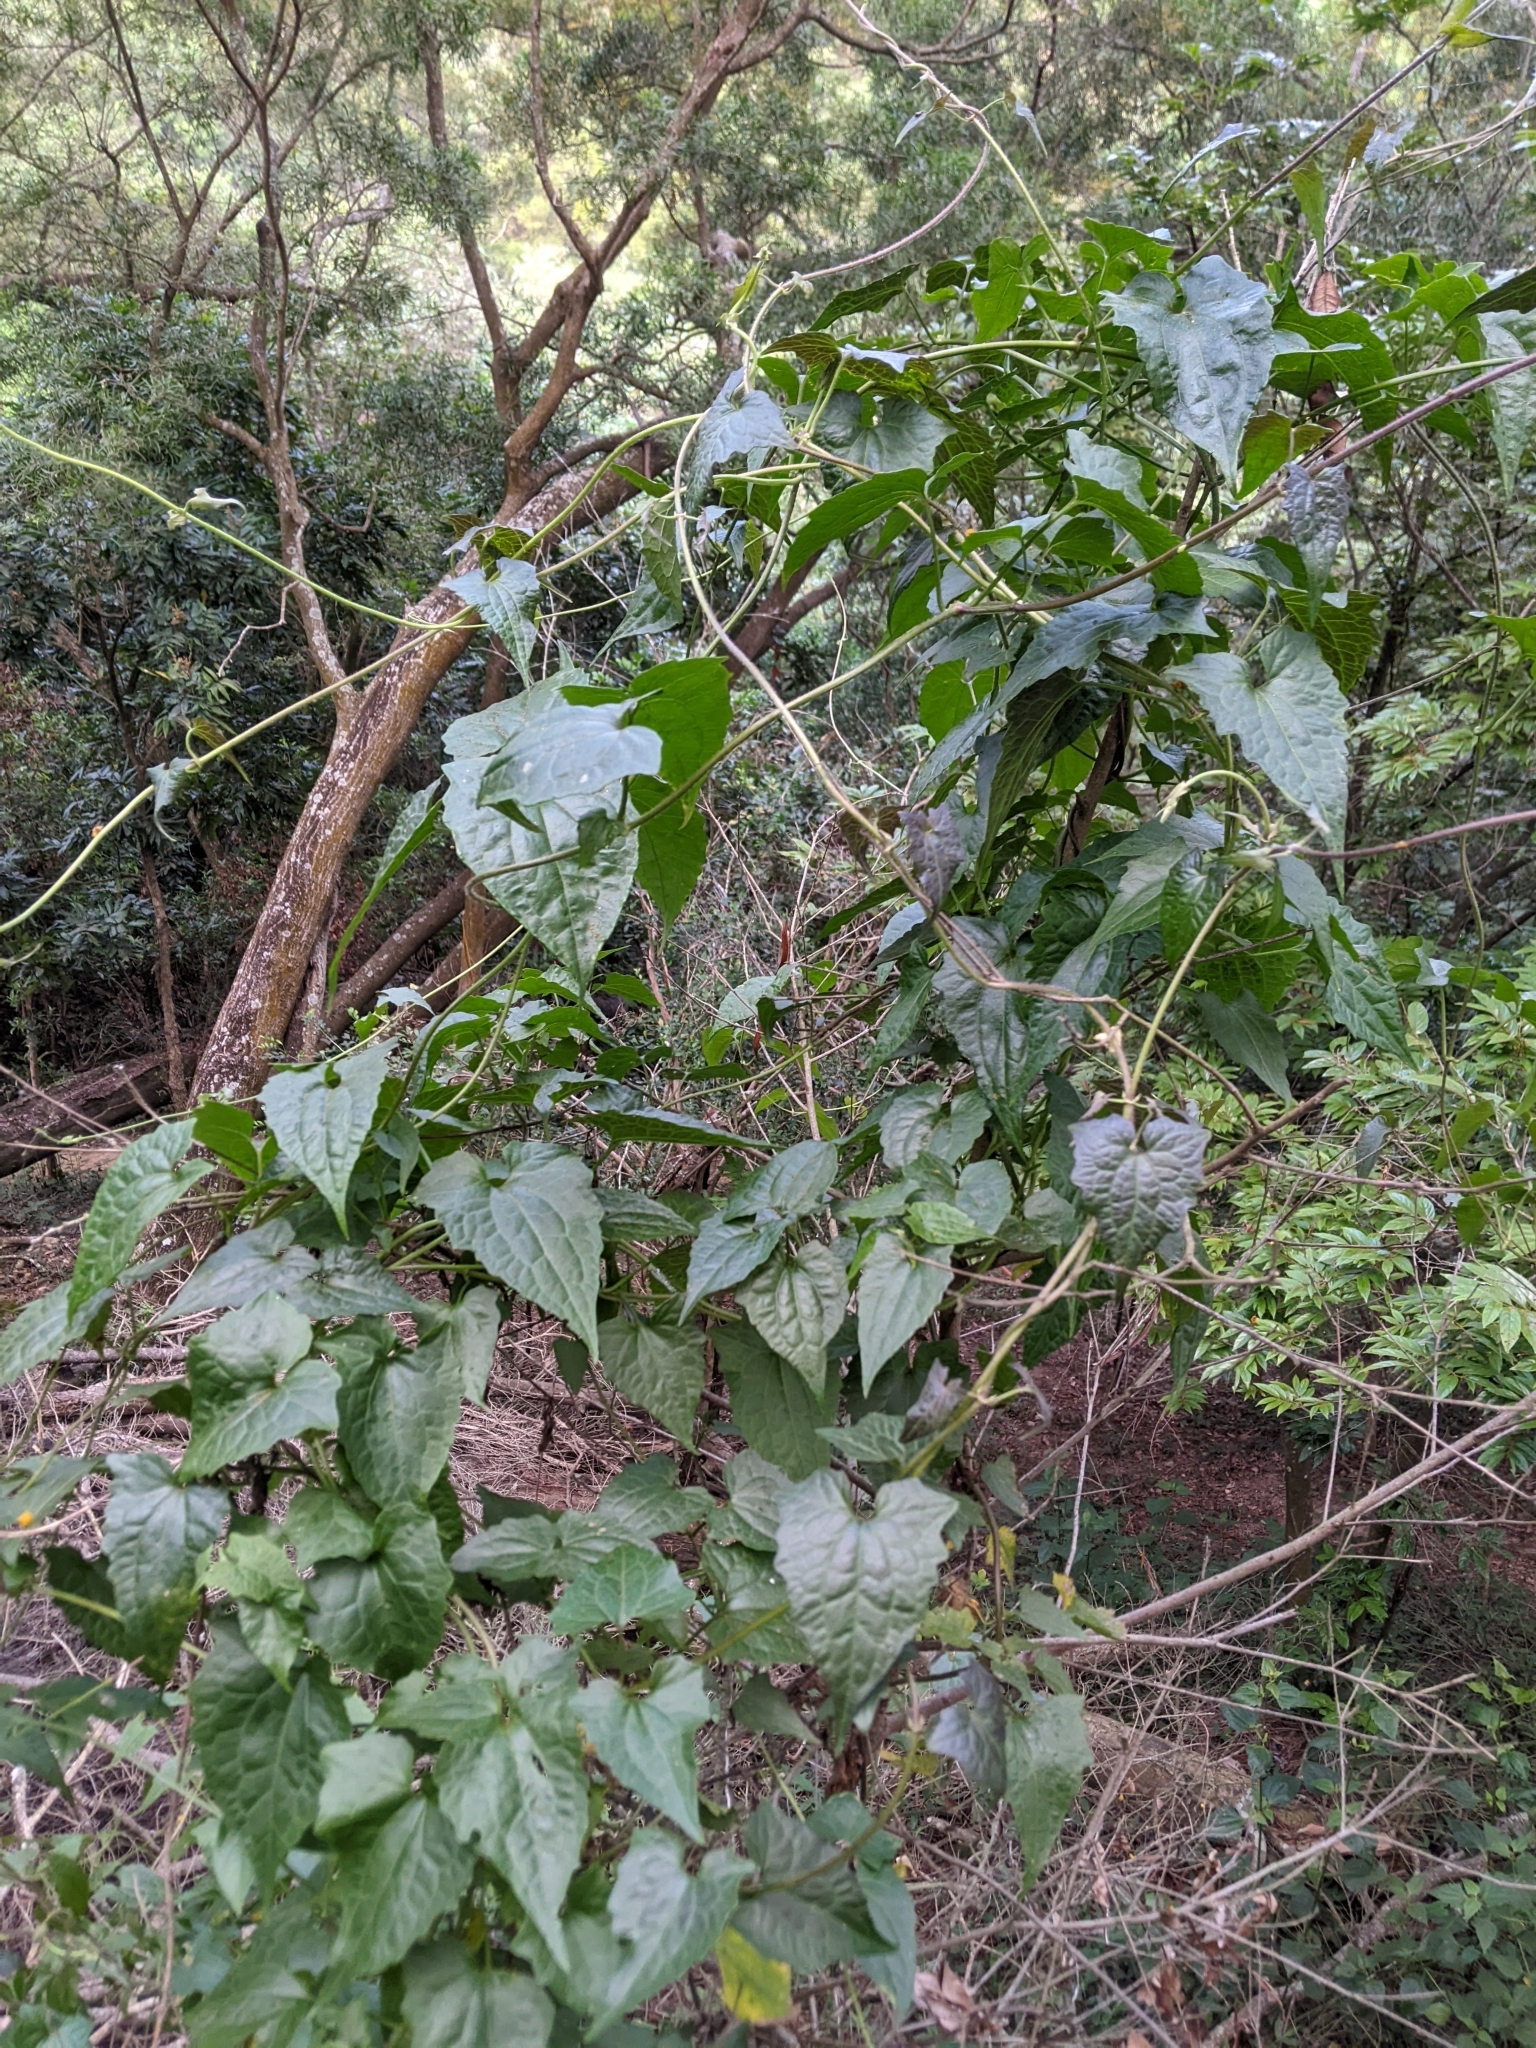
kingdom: Plantae
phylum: Tracheophyta
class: Magnoliopsida
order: Asterales
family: Asteraceae
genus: Mikania
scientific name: Mikania micrantha
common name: Mile-a-minute
